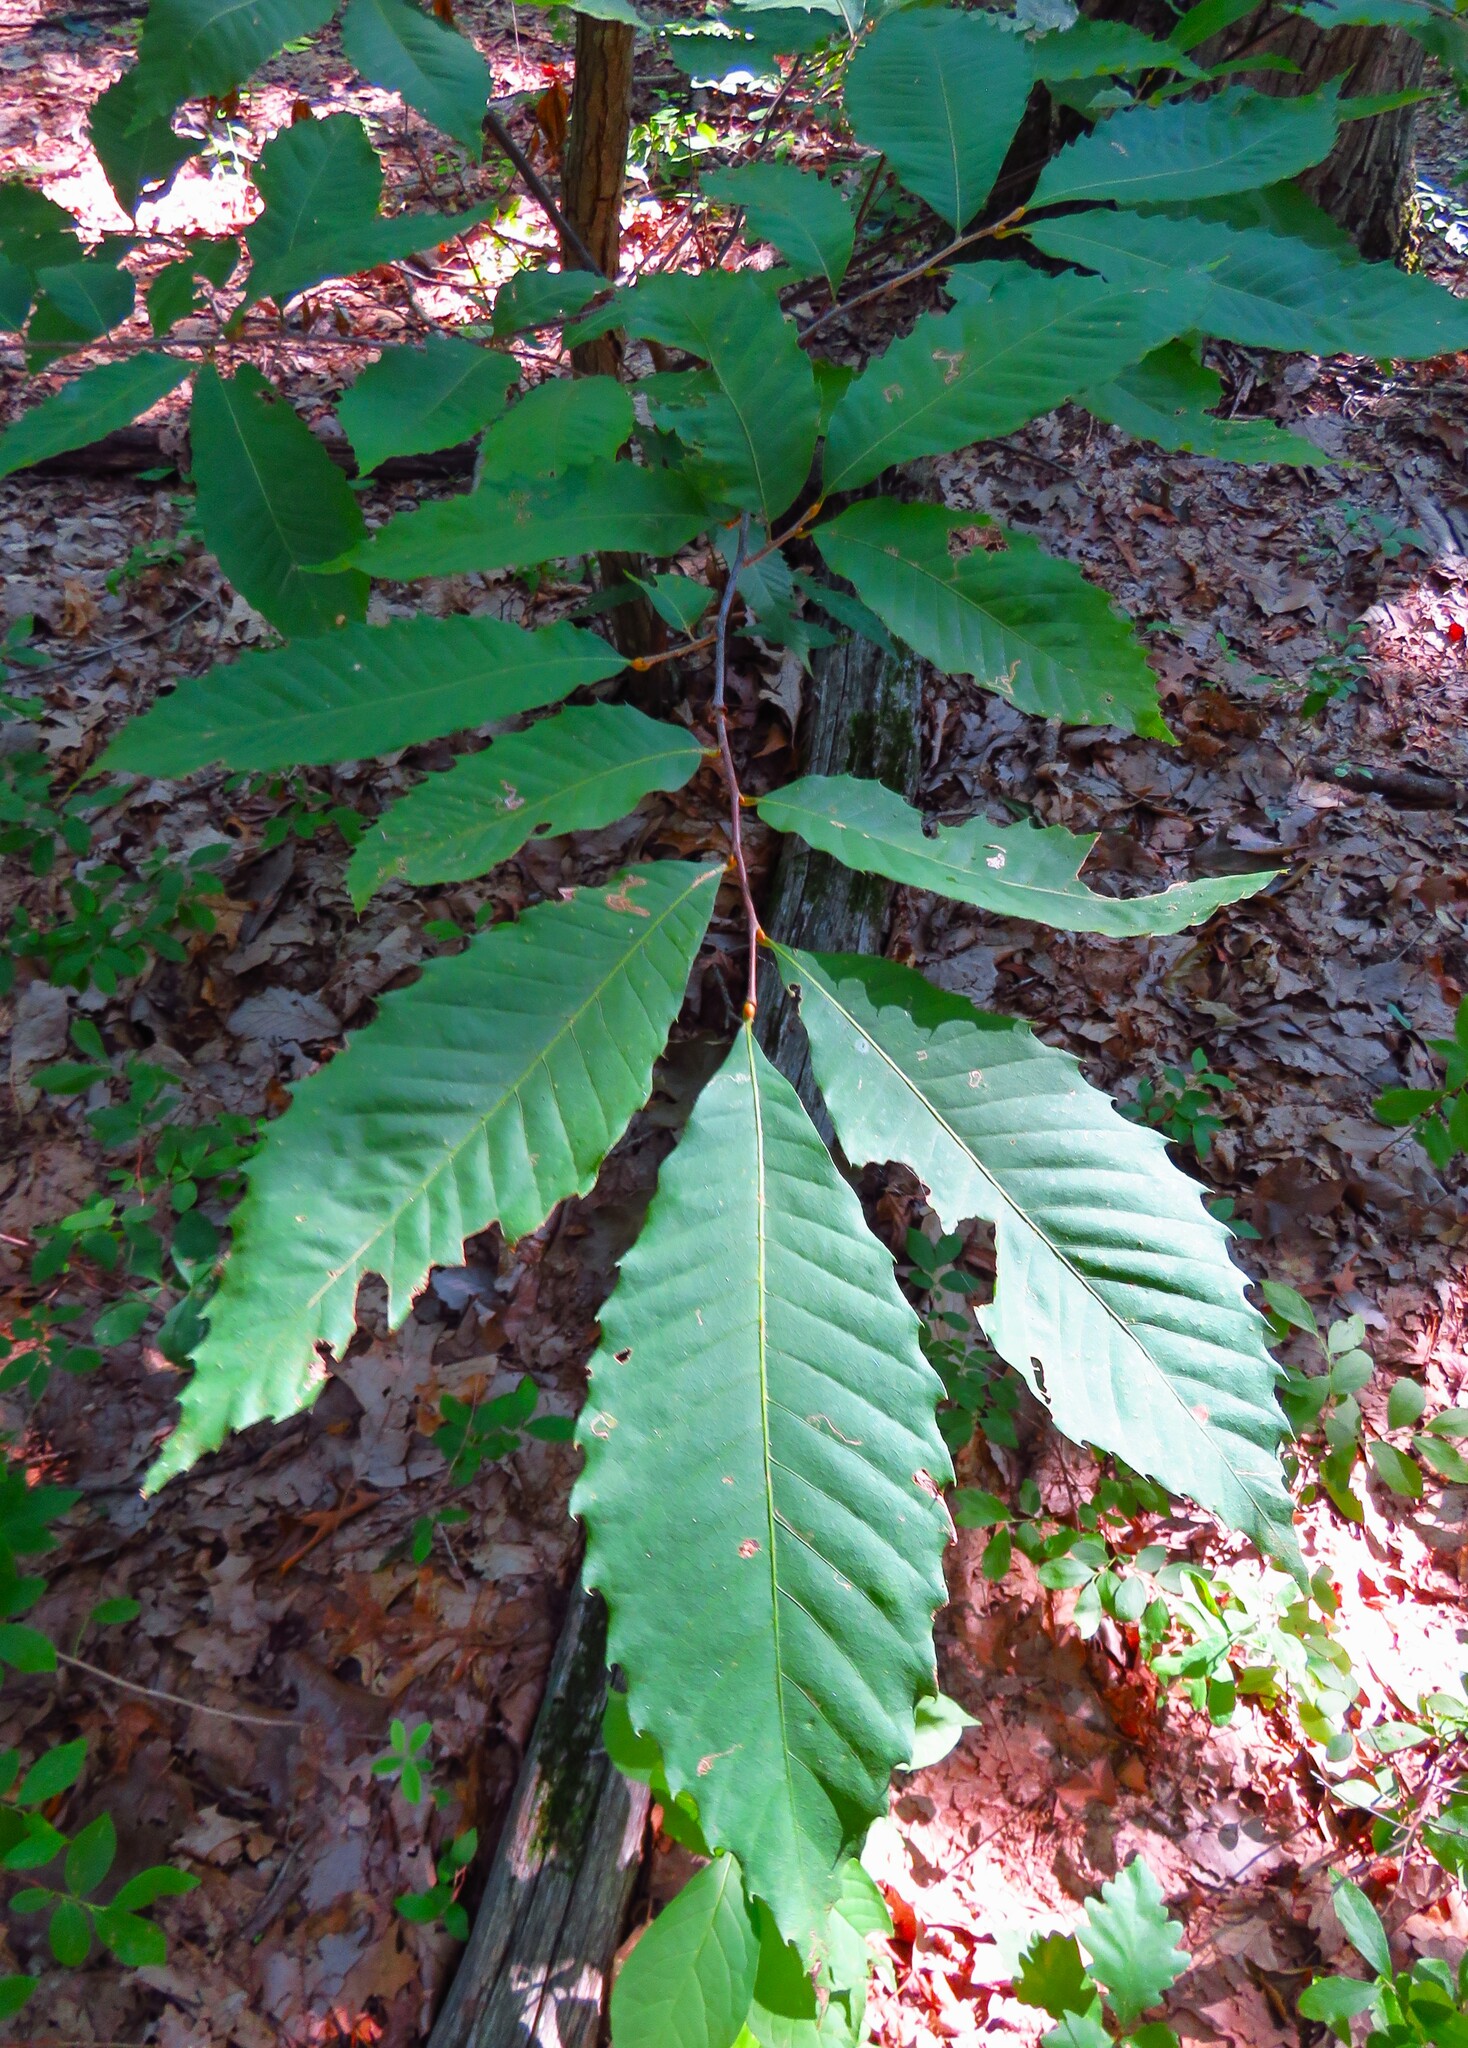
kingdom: Plantae
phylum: Tracheophyta
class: Magnoliopsida
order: Fagales
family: Fagaceae
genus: Castanea
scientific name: Castanea dentata
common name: American chestnut
